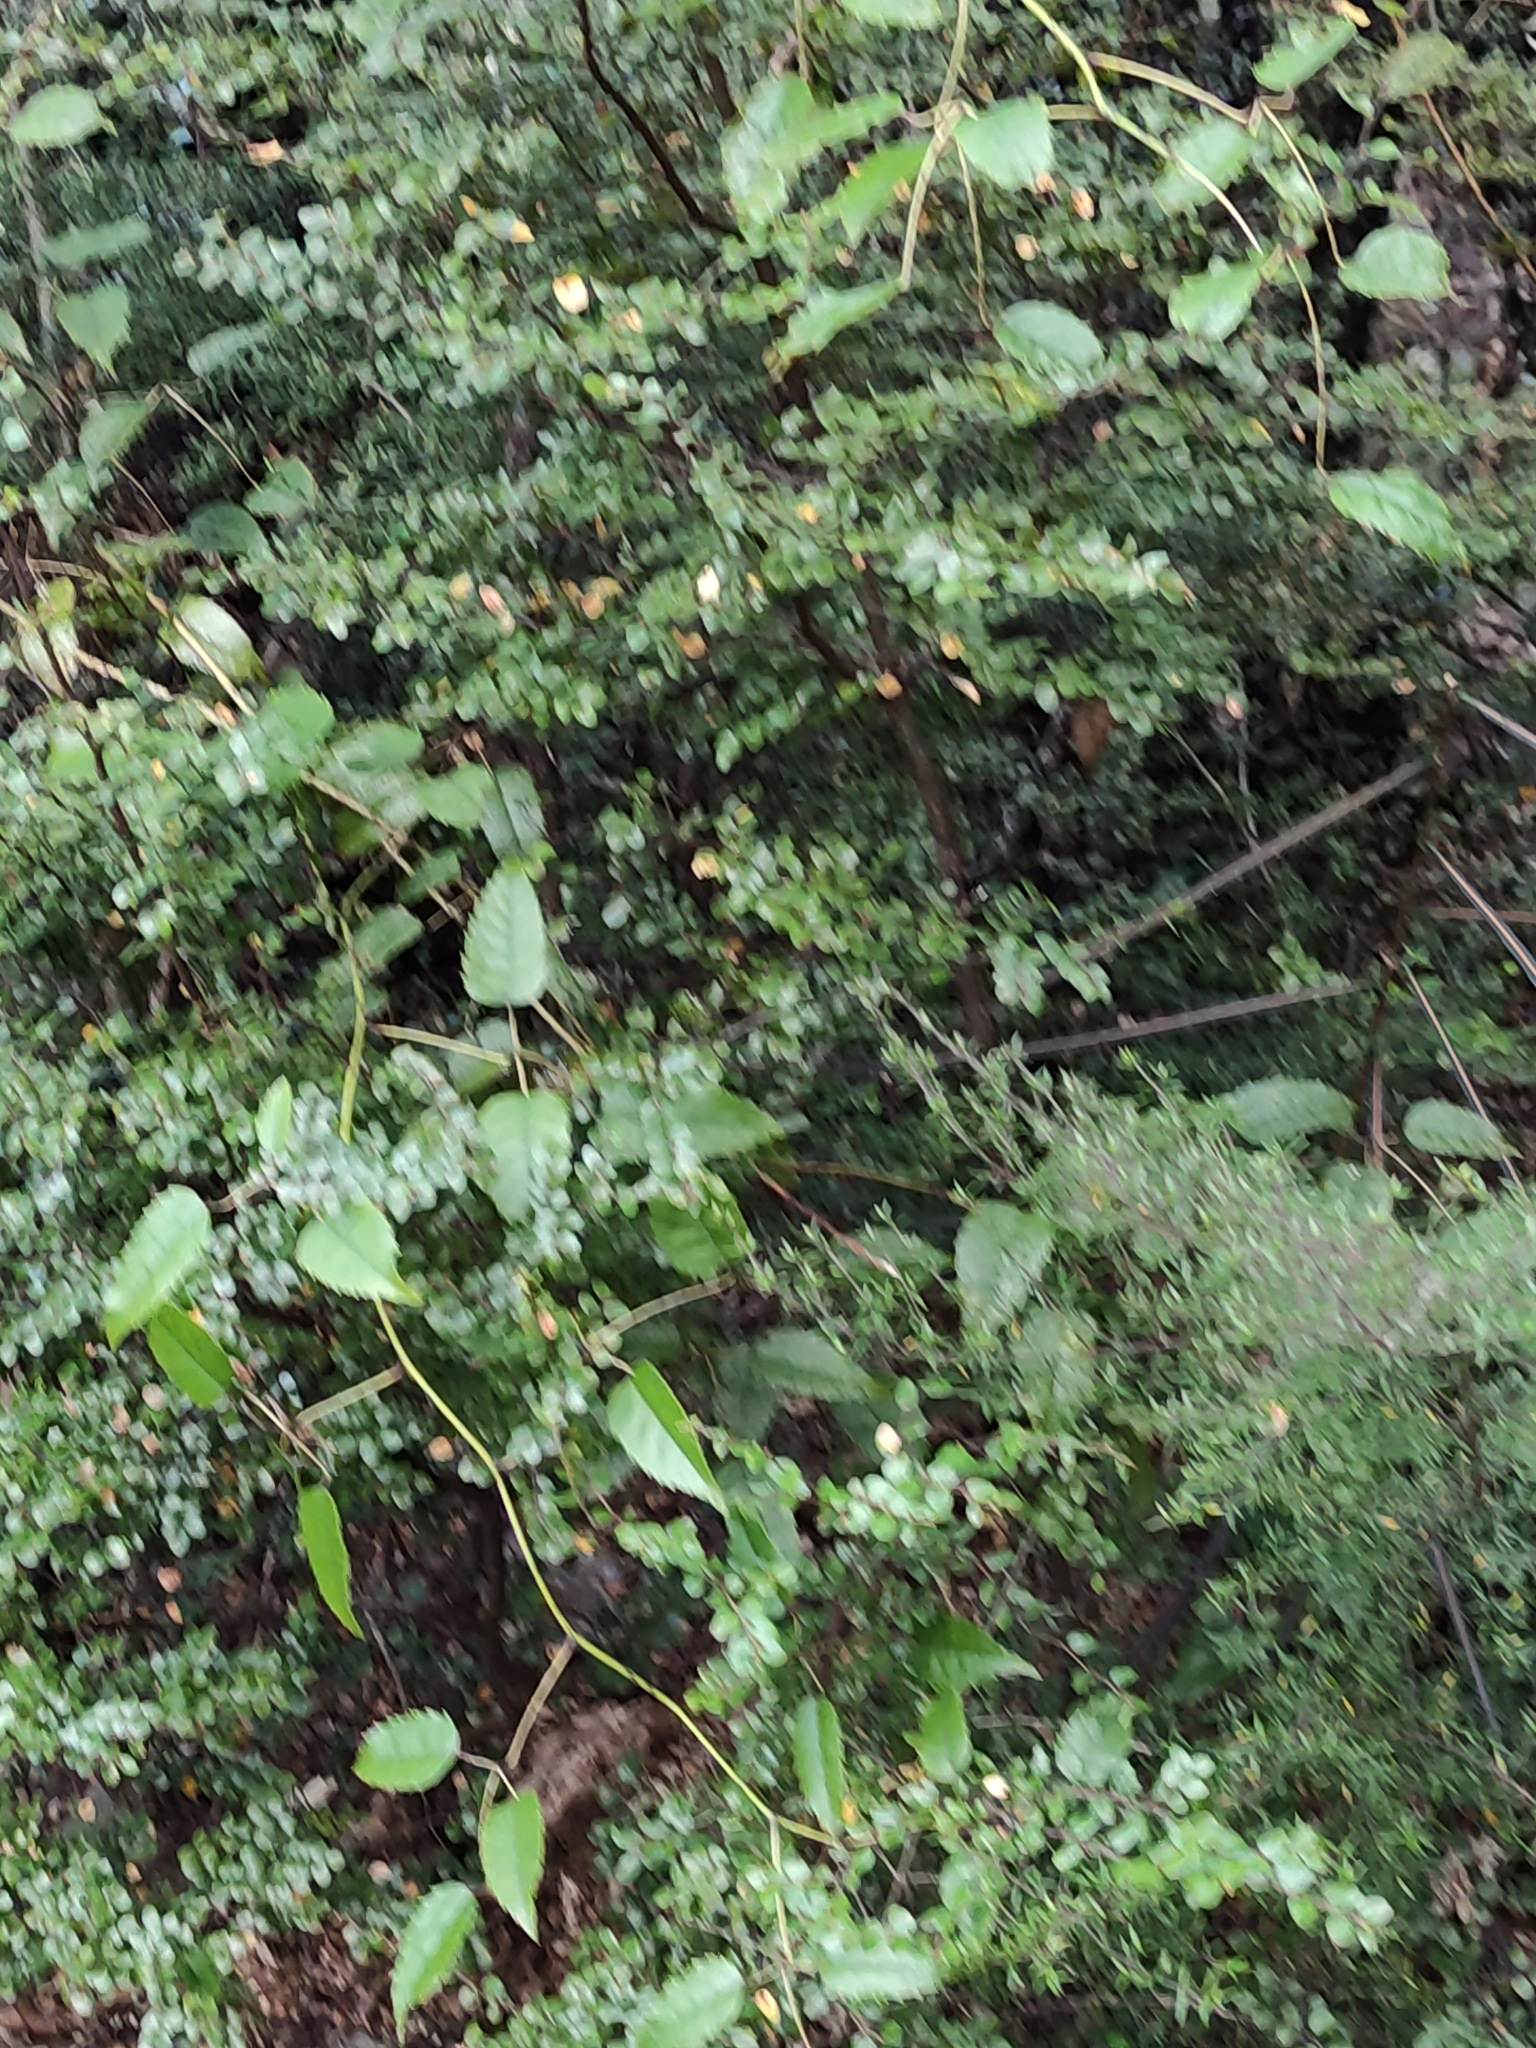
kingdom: Plantae
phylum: Tracheophyta
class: Magnoliopsida
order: Rosales
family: Rosaceae
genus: Rubus
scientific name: Rubus cissoides
